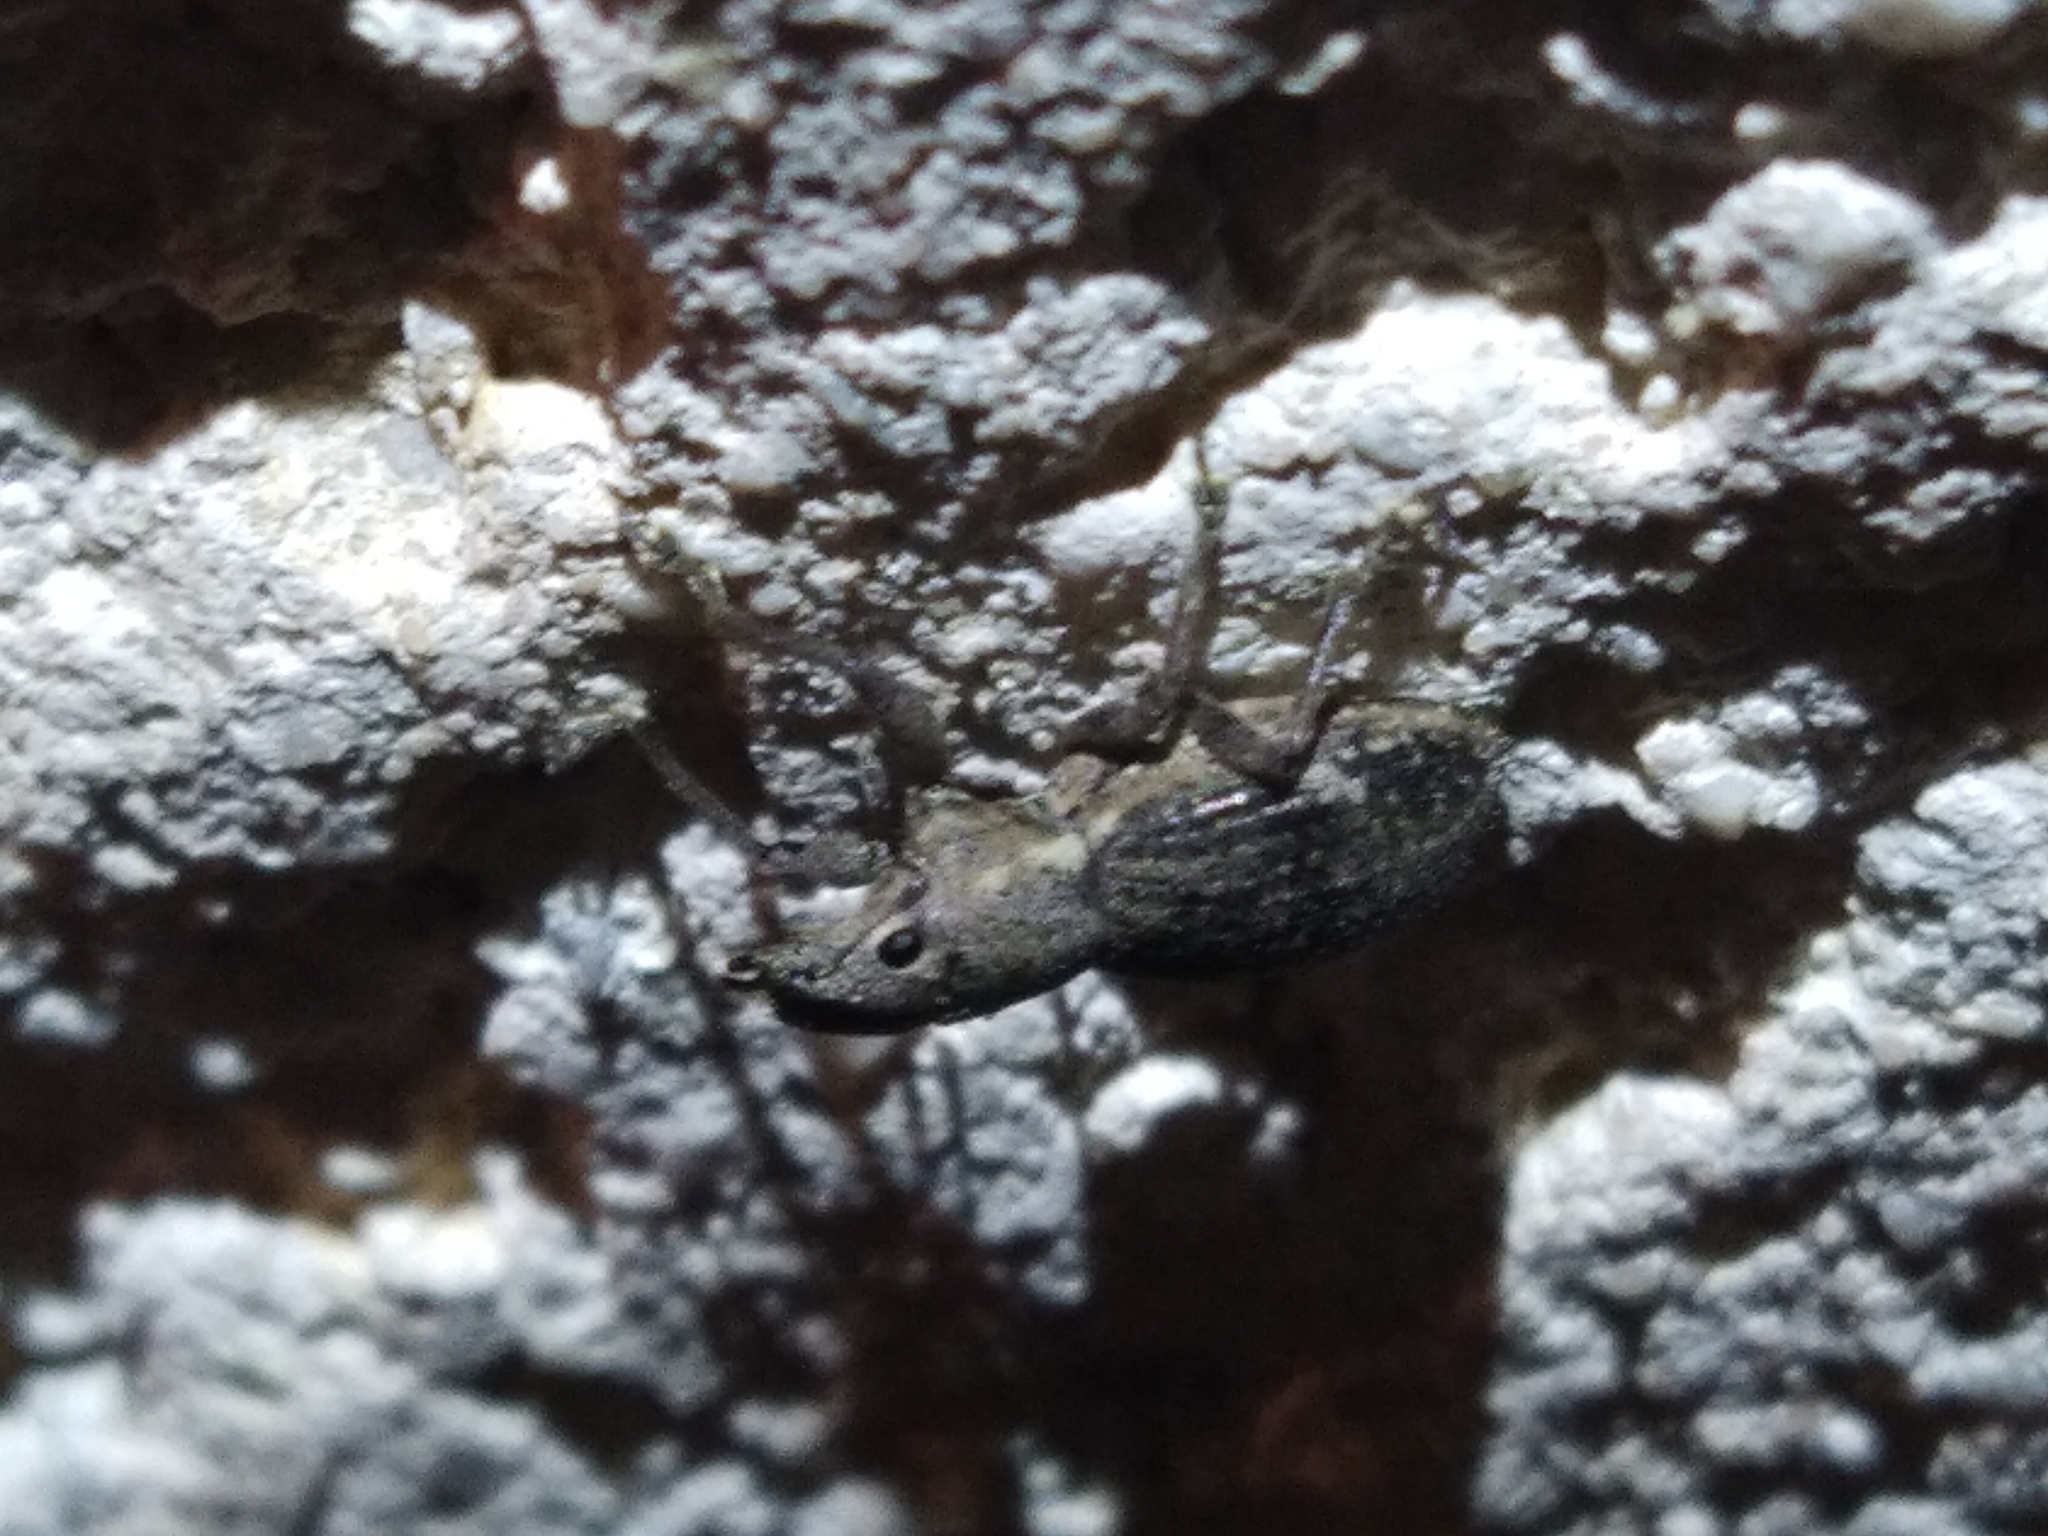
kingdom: Animalia
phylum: Arthropoda
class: Insecta
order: Coleoptera
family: Curculionidae
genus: Naupactus
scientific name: Naupactus cervinus
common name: Fuller rose beetle
